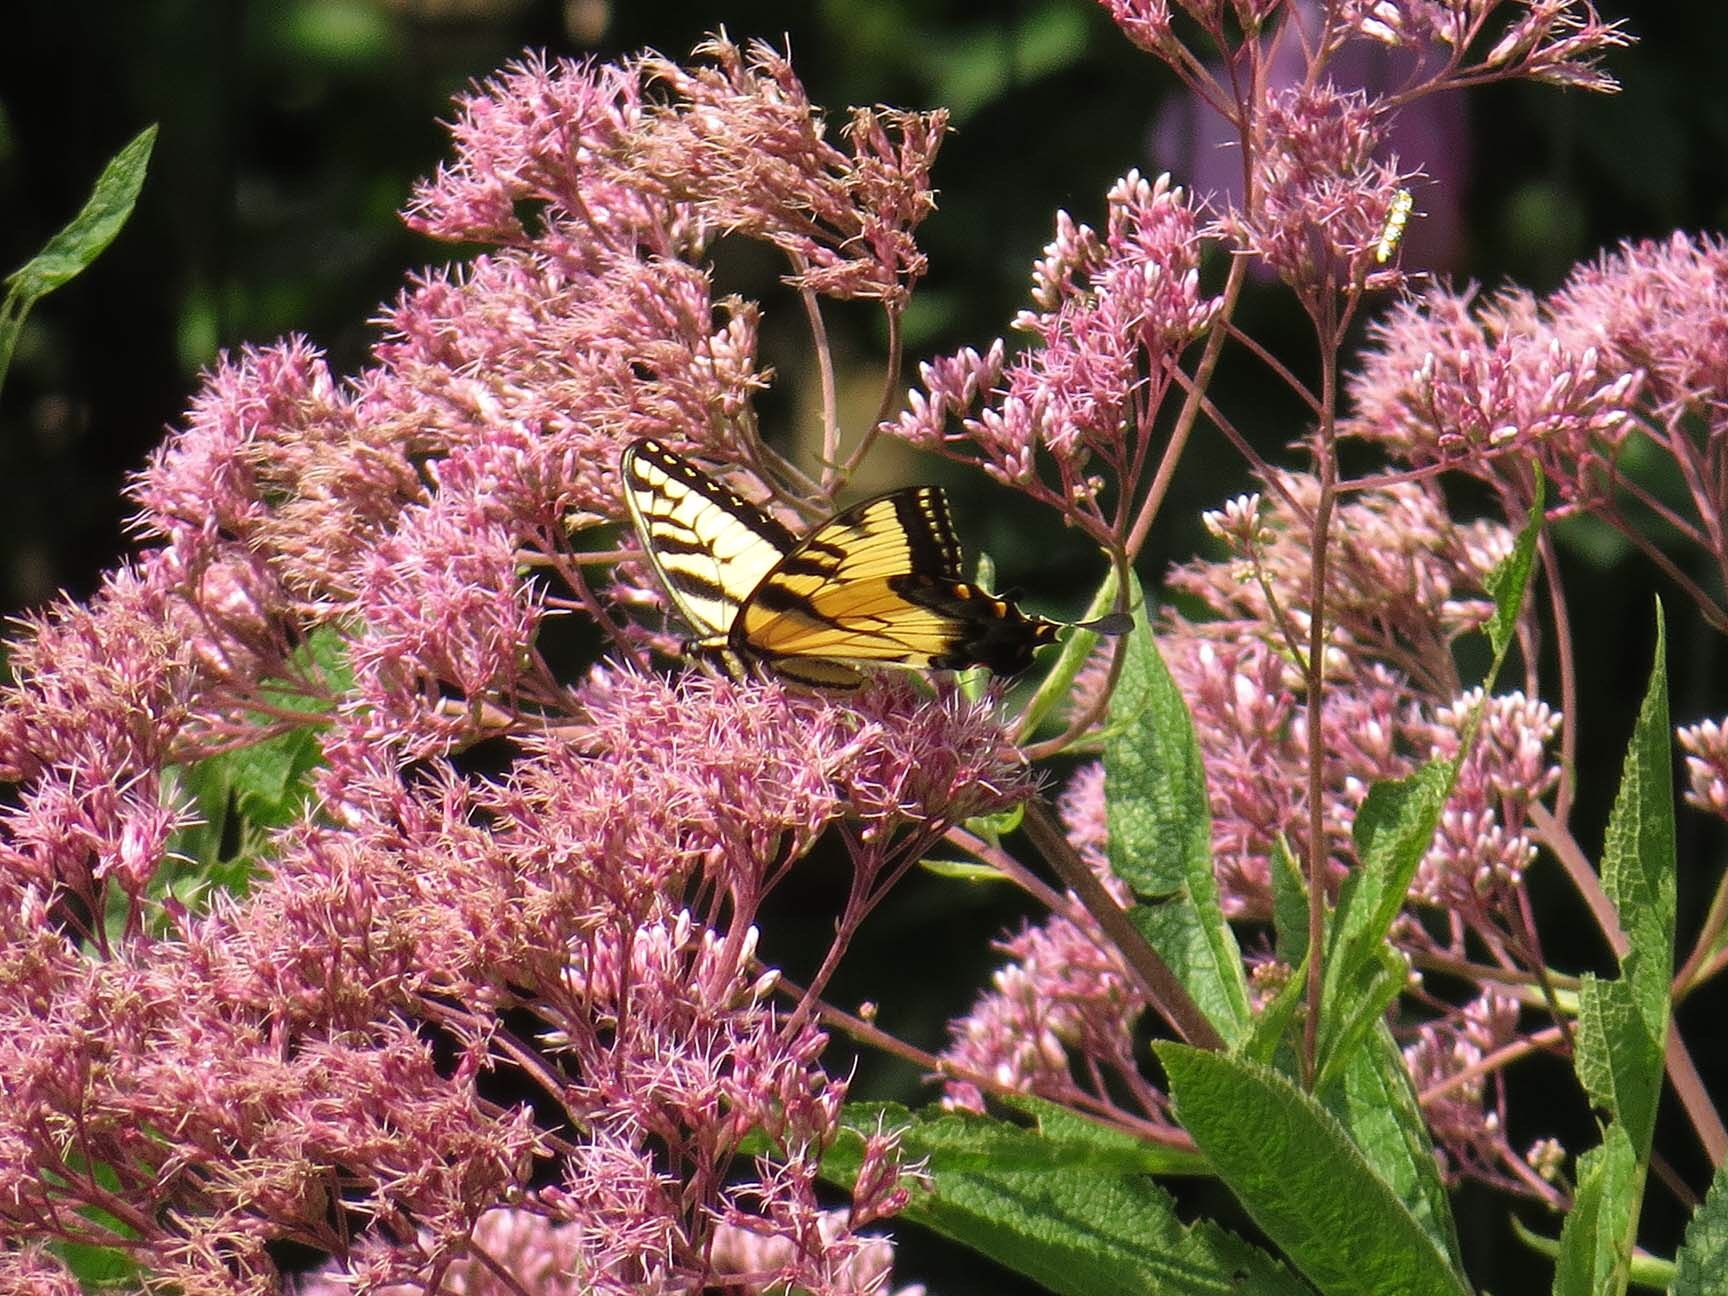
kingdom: Animalia
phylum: Arthropoda
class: Insecta
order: Lepidoptera
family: Papilionidae
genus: Papilio
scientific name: Papilio glaucus
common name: Tiger swallowtail
